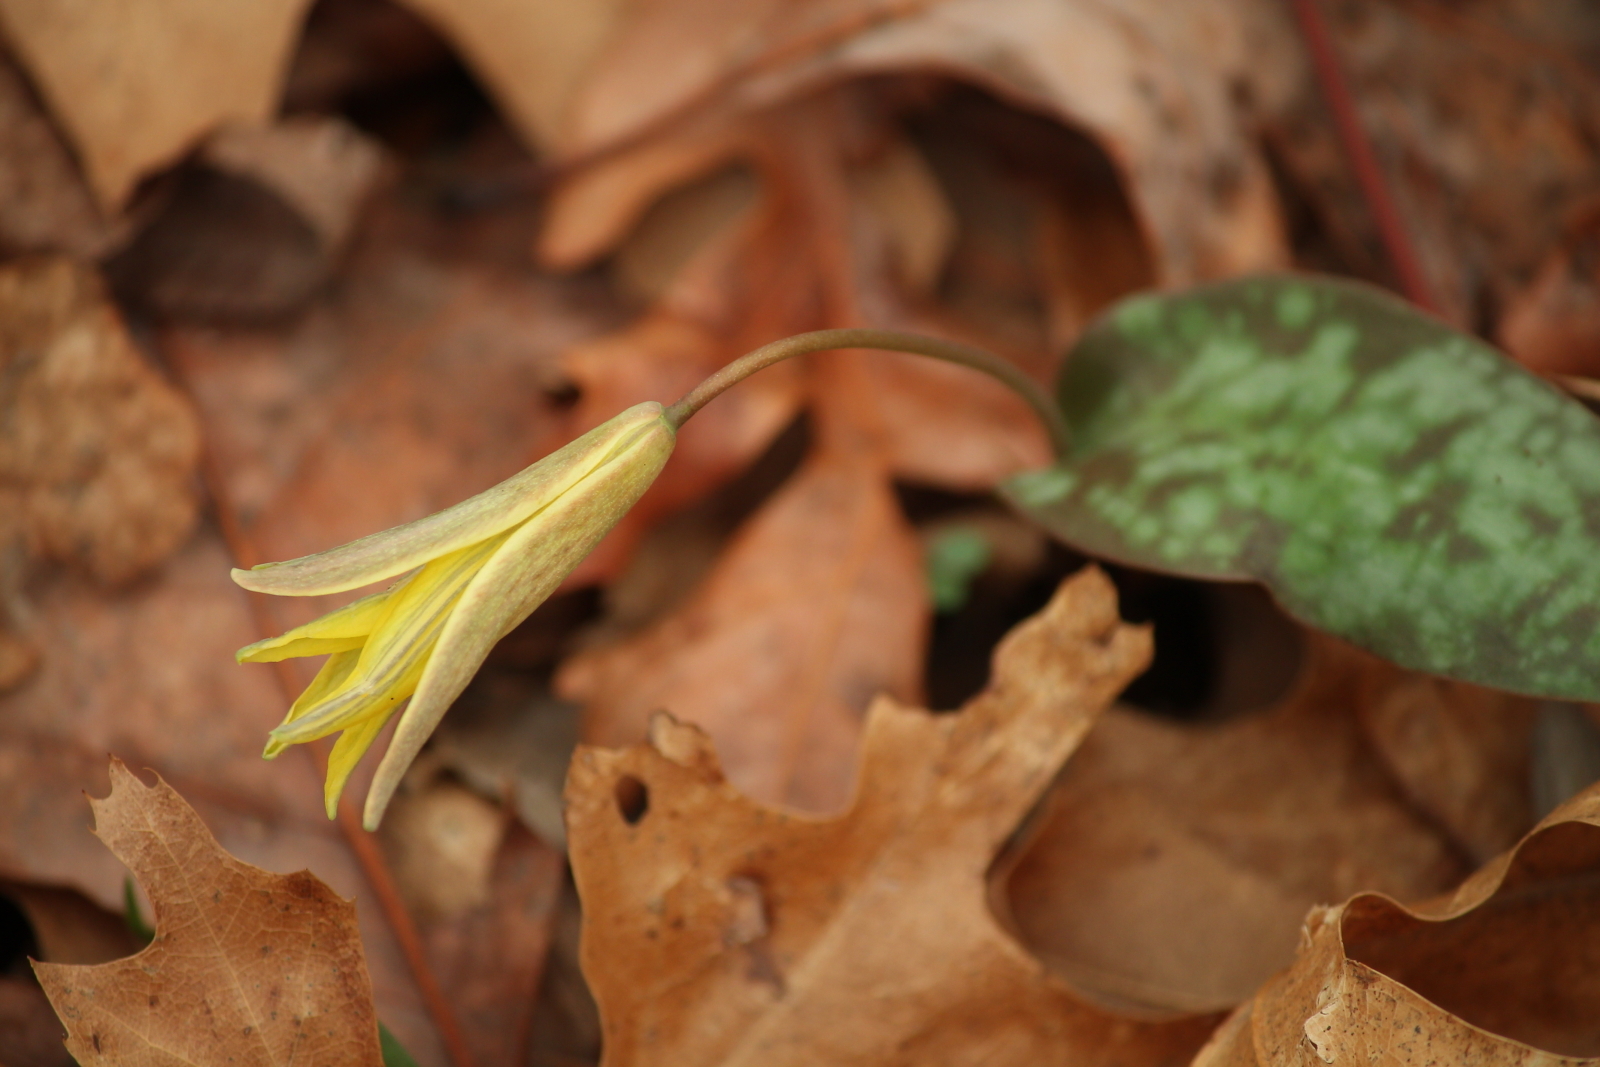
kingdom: Plantae
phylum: Tracheophyta
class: Liliopsida
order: Liliales
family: Liliaceae
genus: Erythronium
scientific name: Erythronium rostratum
